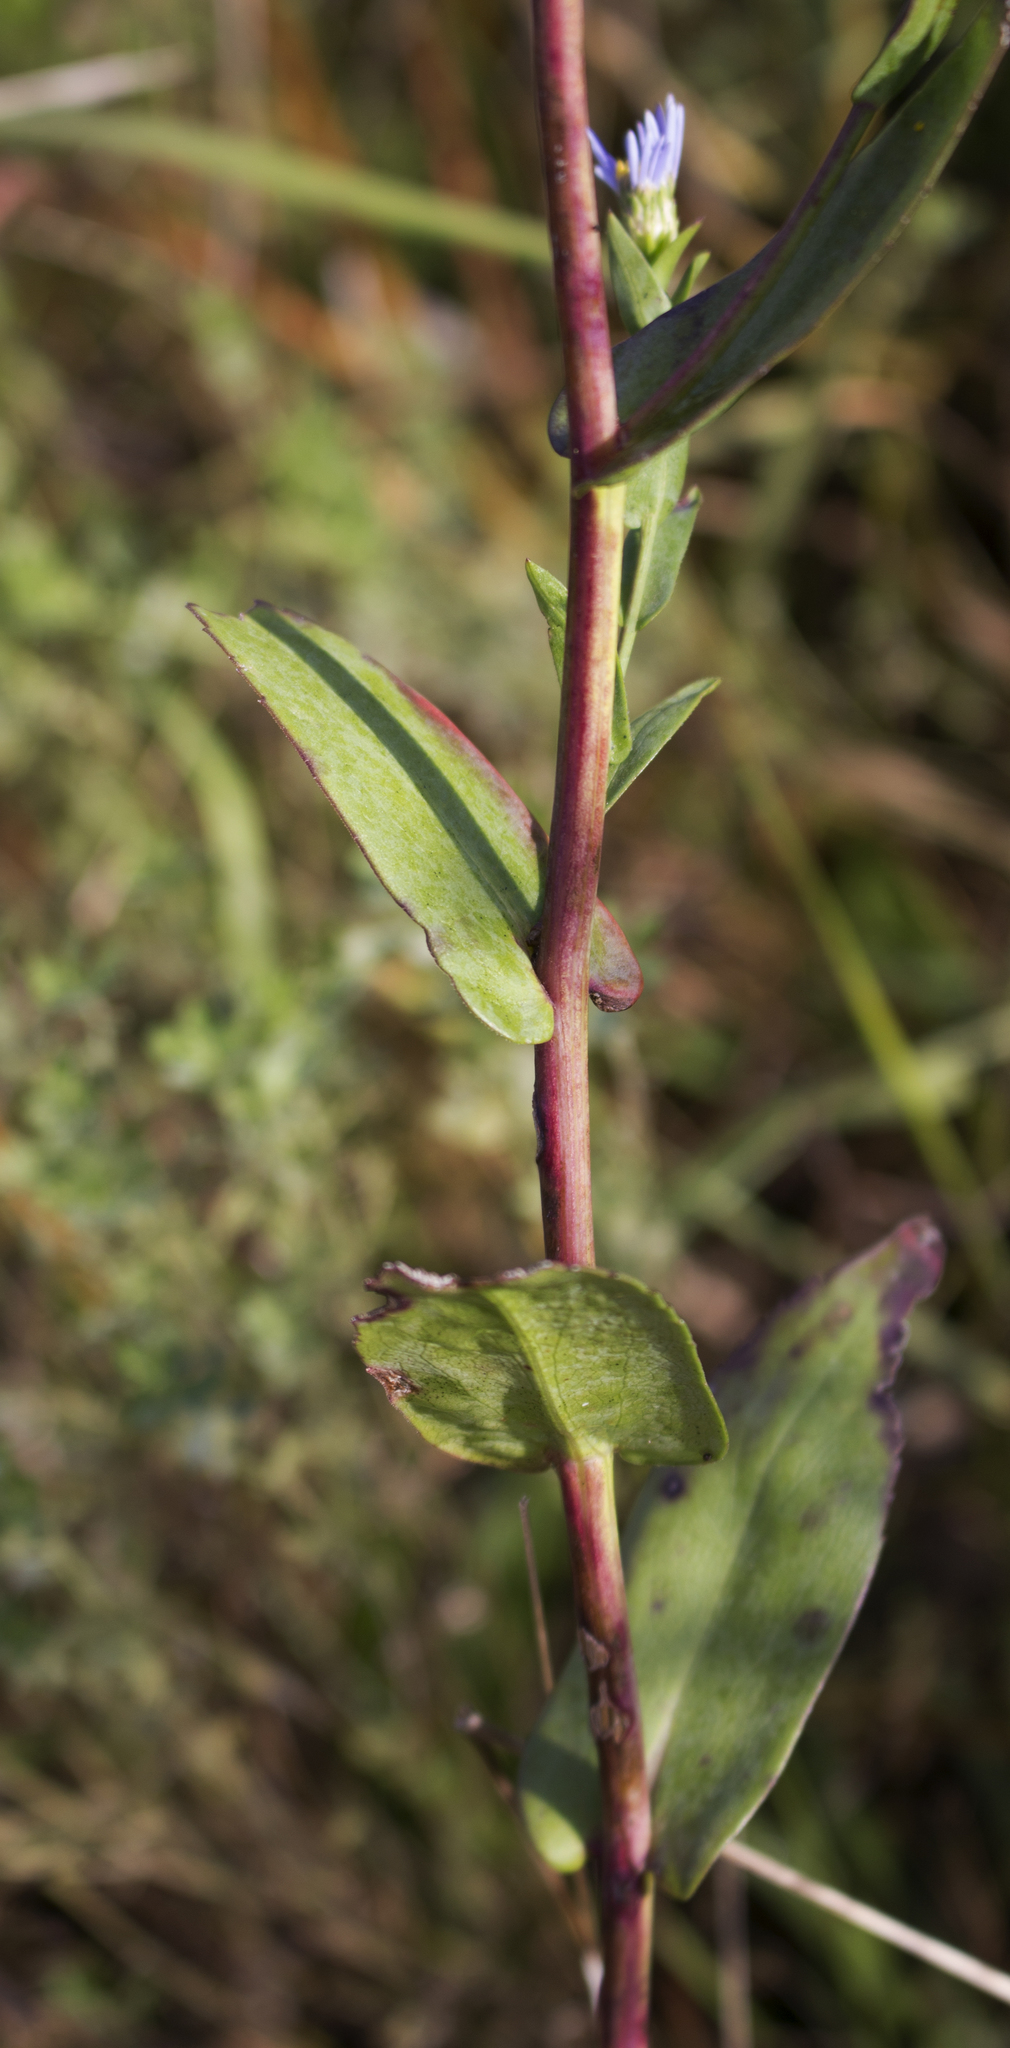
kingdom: Plantae
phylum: Tracheophyta
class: Magnoliopsida
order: Asterales
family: Asteraceae
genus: Symphyotrichum
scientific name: Symphyotrichum laeve
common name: Glaucous aster
